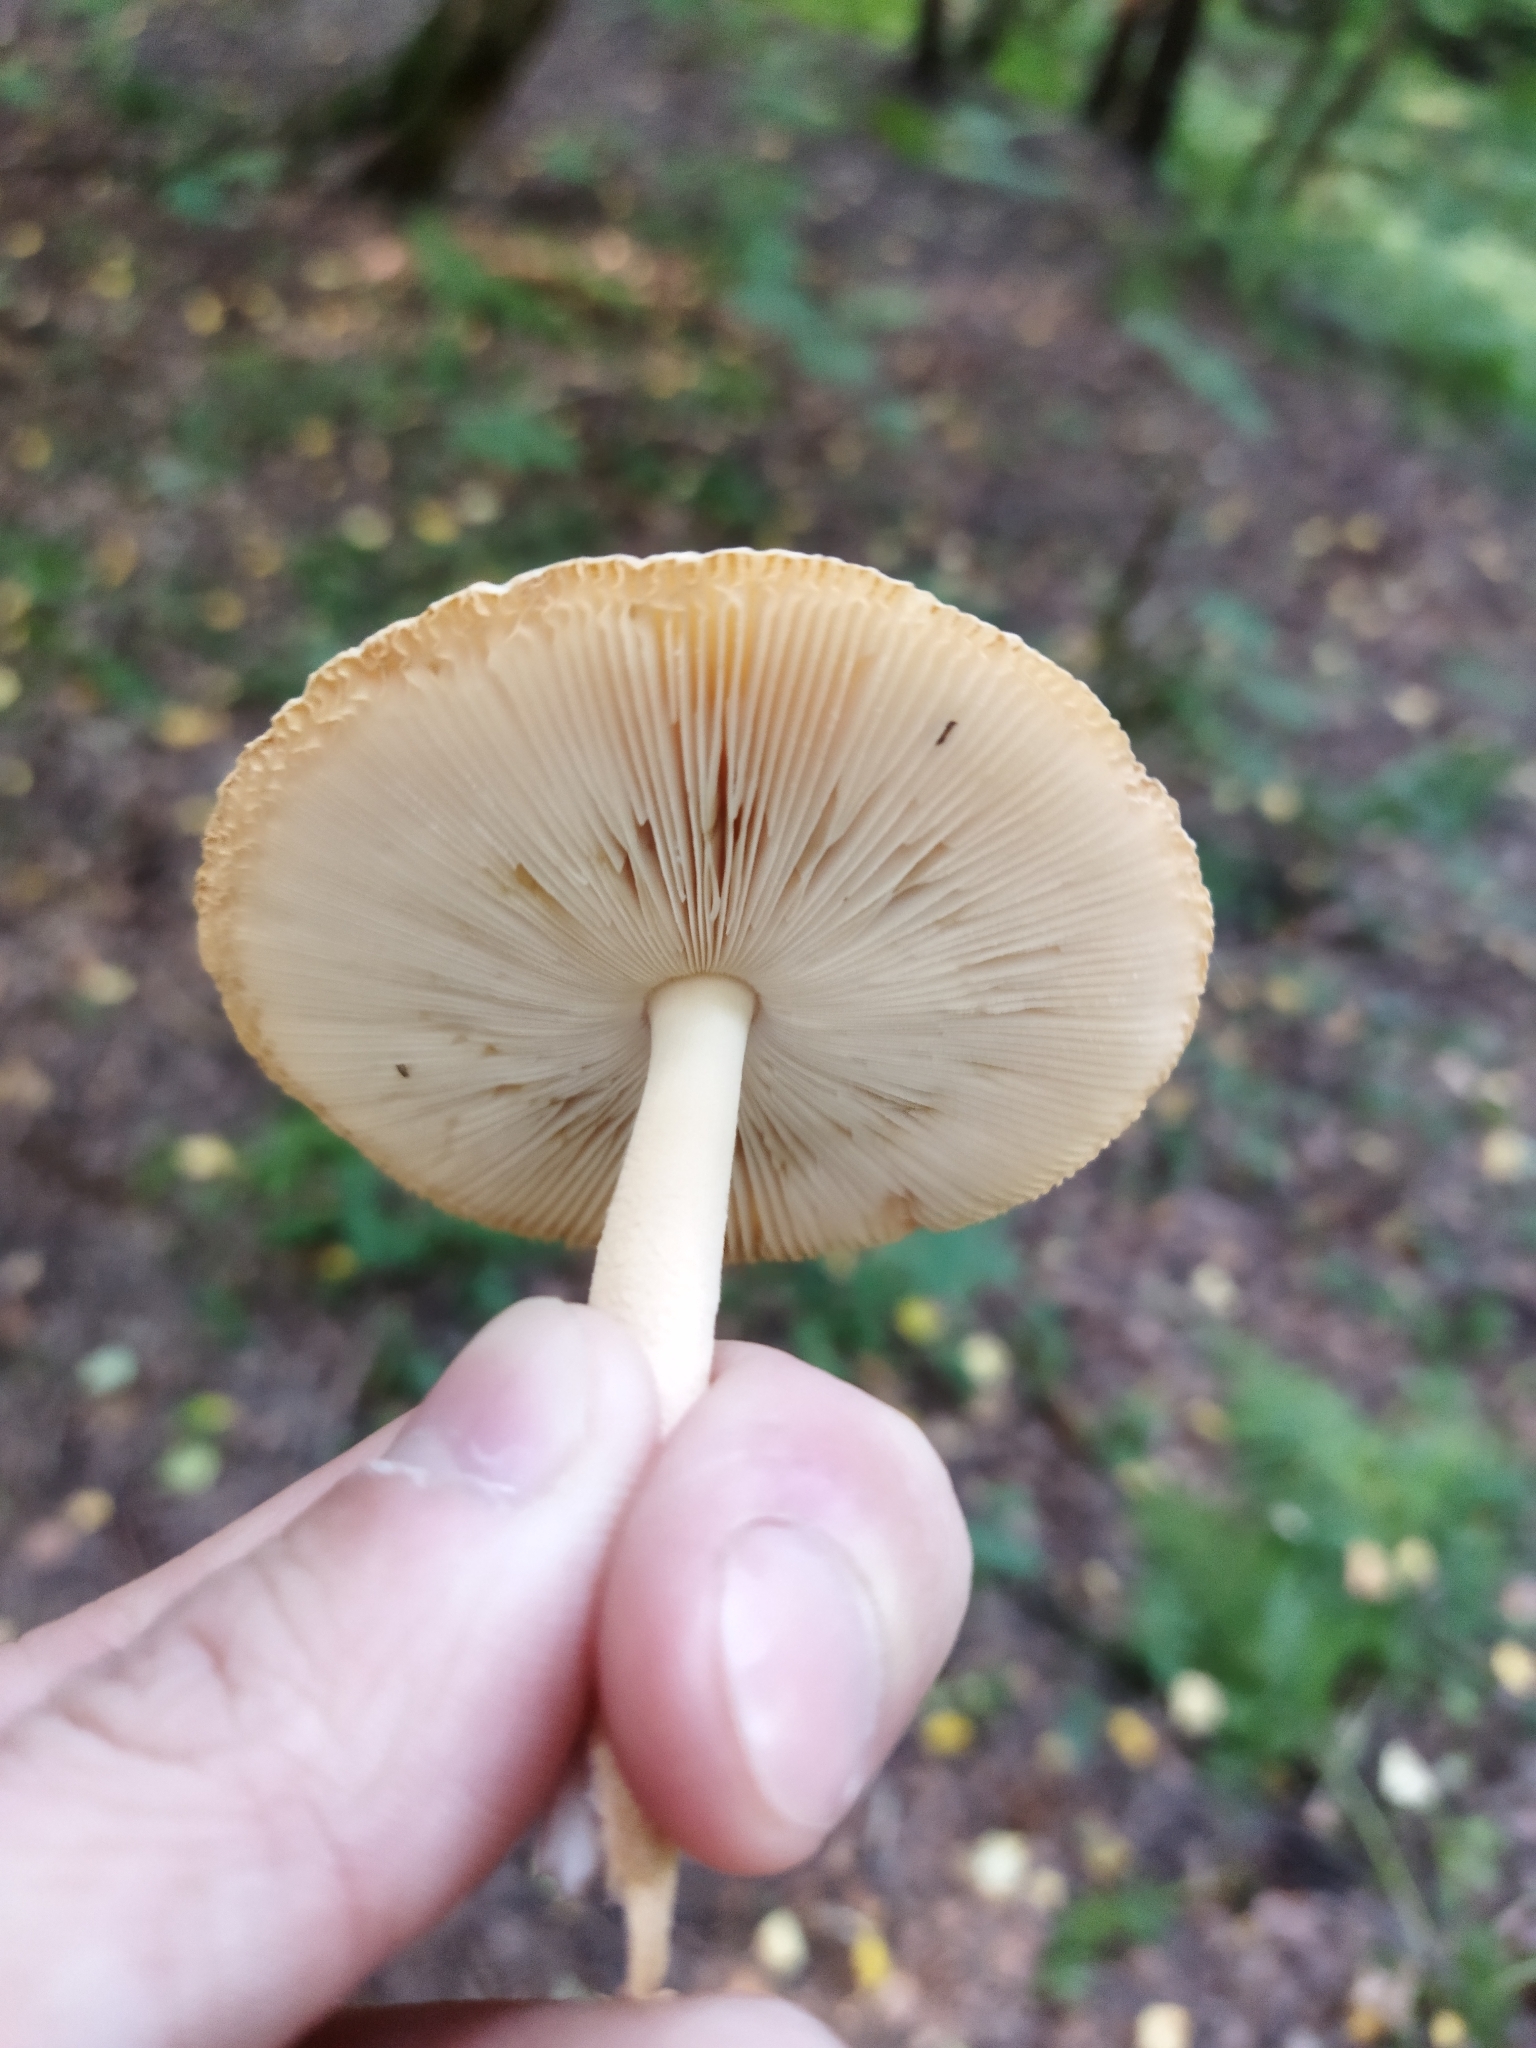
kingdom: Fungi
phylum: Basidiomycota
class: Agaricomycetes
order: Agaricales
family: Amanitaceae
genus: Amanita
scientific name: Amanita crocea
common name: Orange grisette
